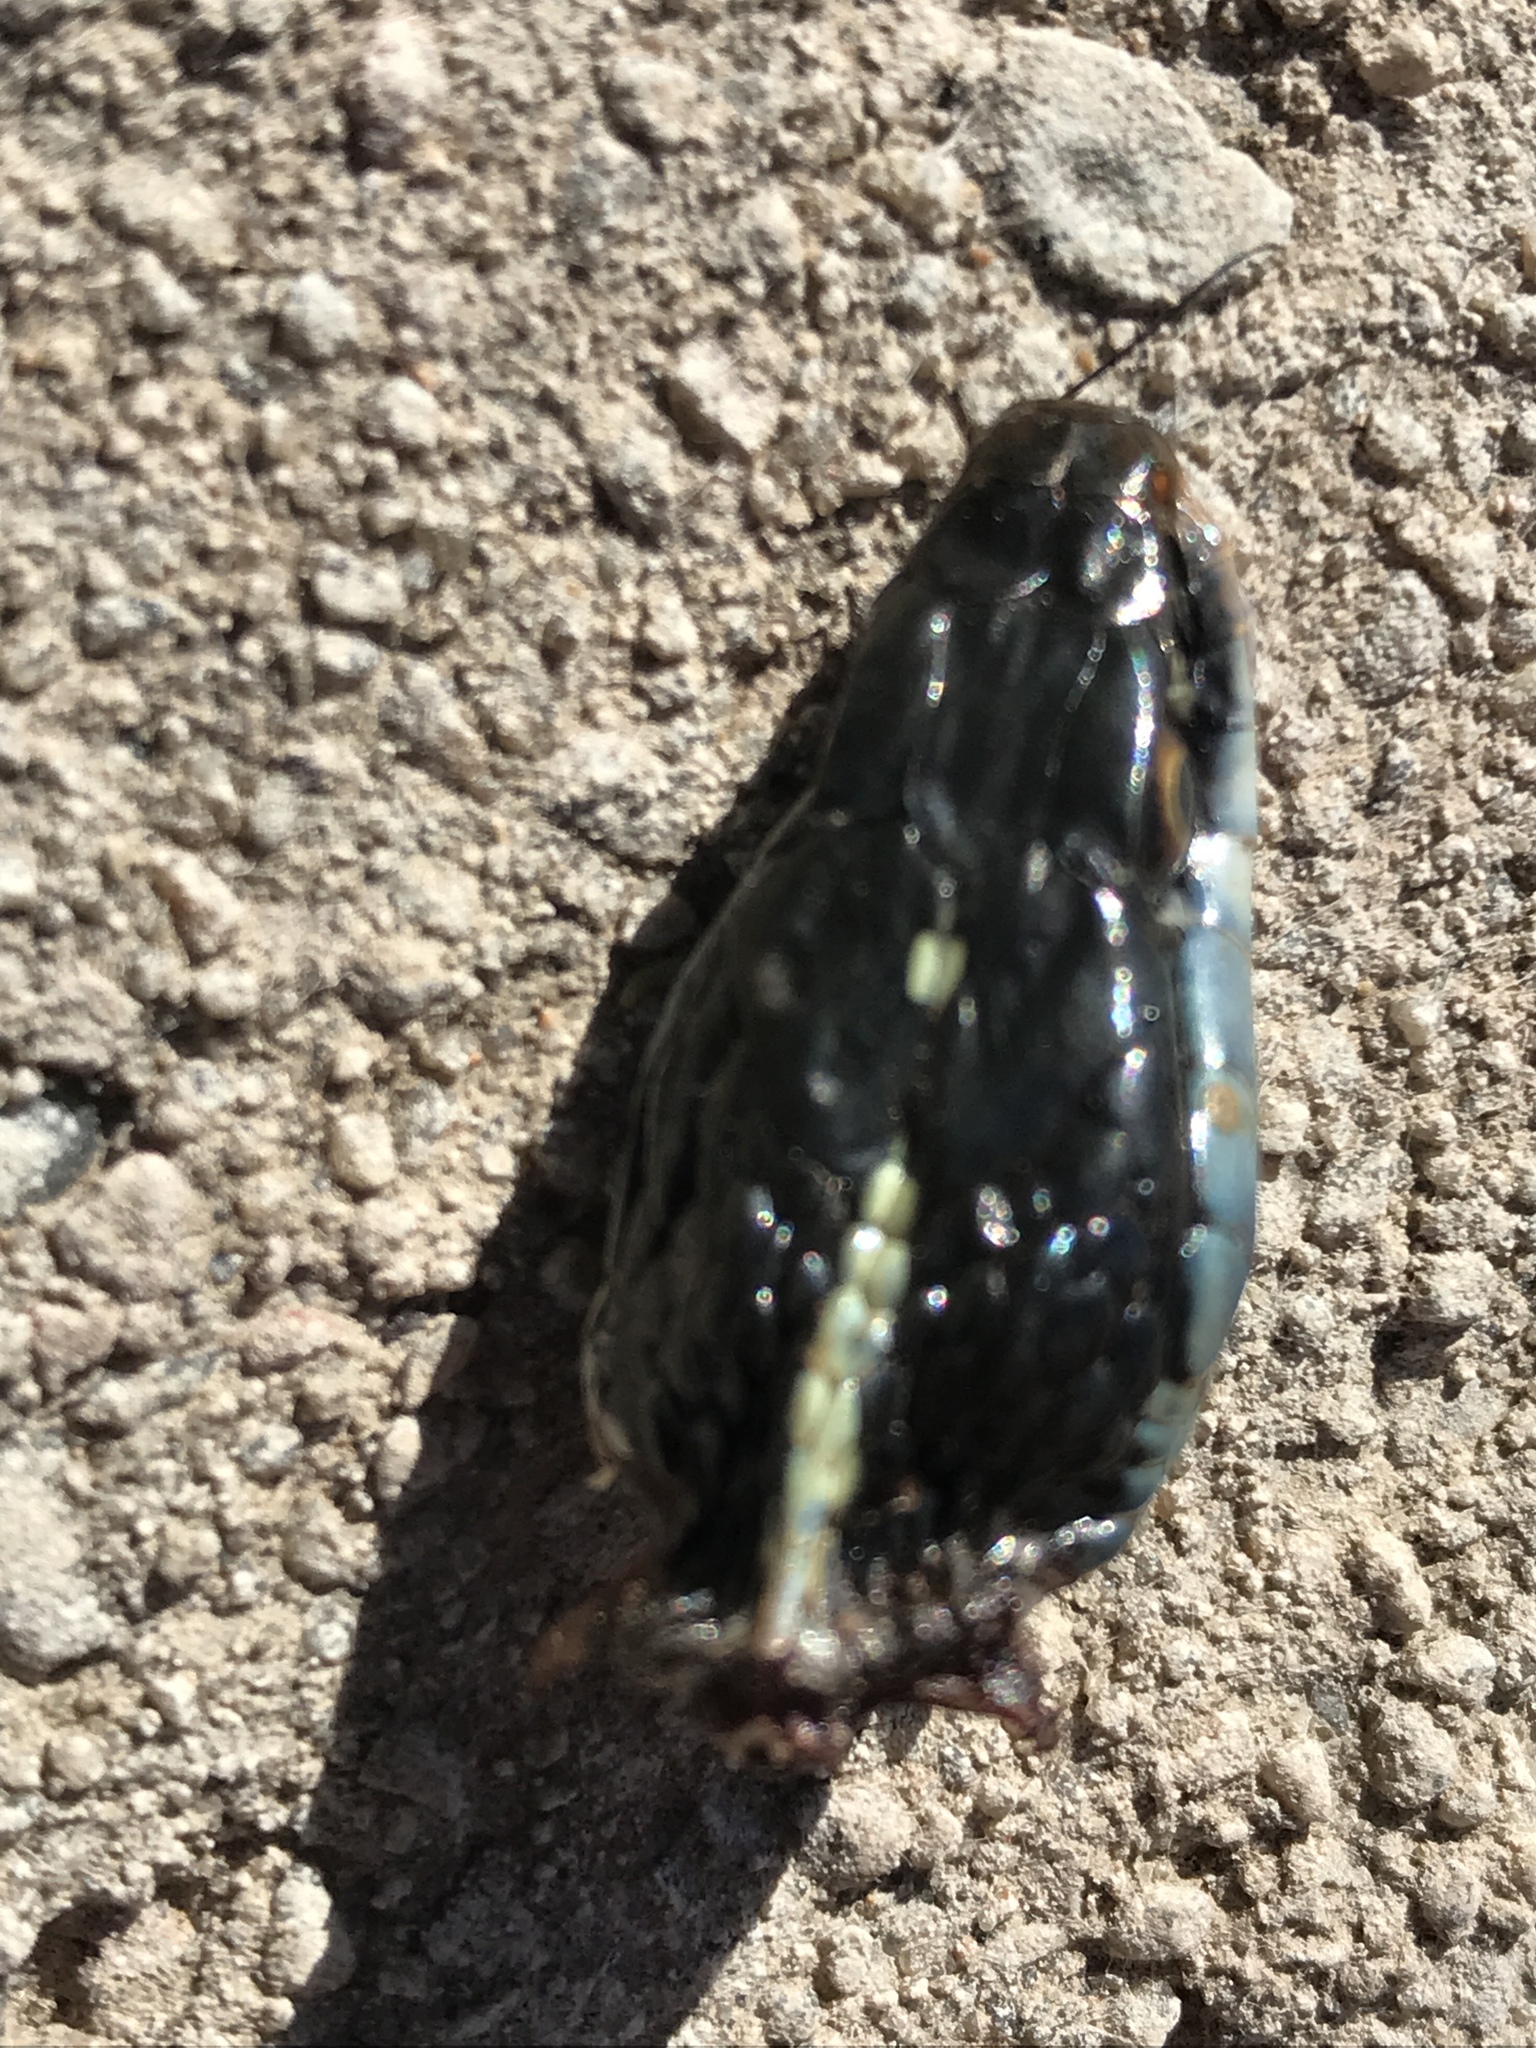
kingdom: Animalia
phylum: Chordata
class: Squamata
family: Colubridae
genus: Thamnophis
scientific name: Thamnophis proximus
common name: Western ribbon snake
